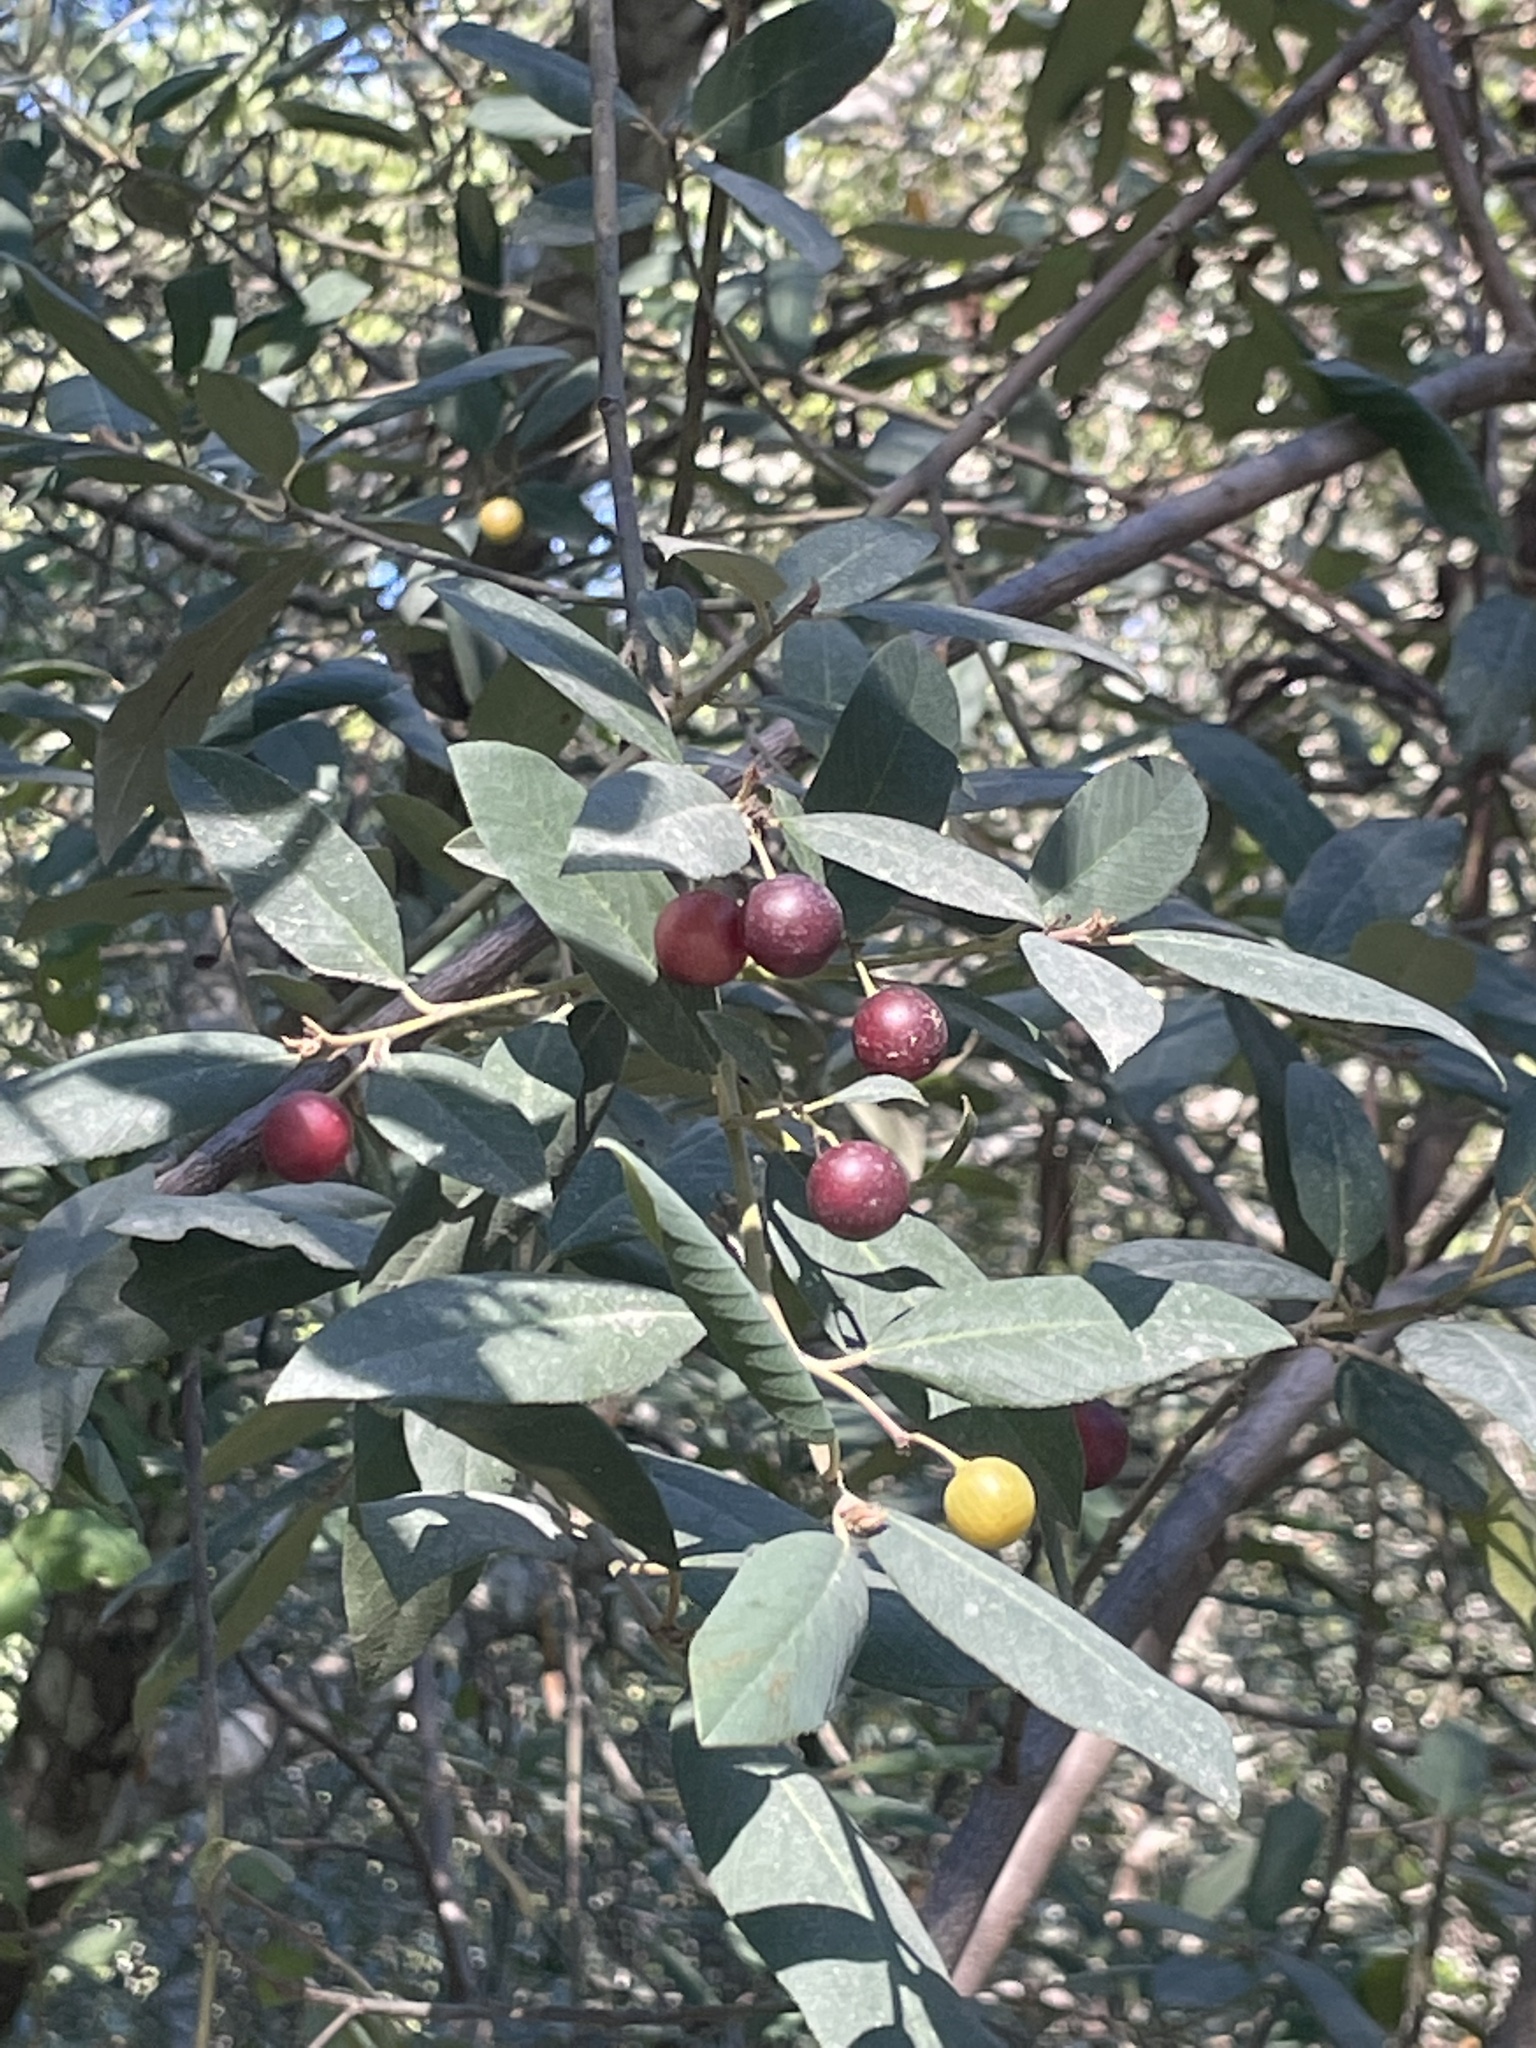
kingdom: Plantae
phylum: Tracheophyta
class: Magnoliopsida
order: Rosales
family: Rhamnaceae
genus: Frangula
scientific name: Frangula californica
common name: California buckthorn
